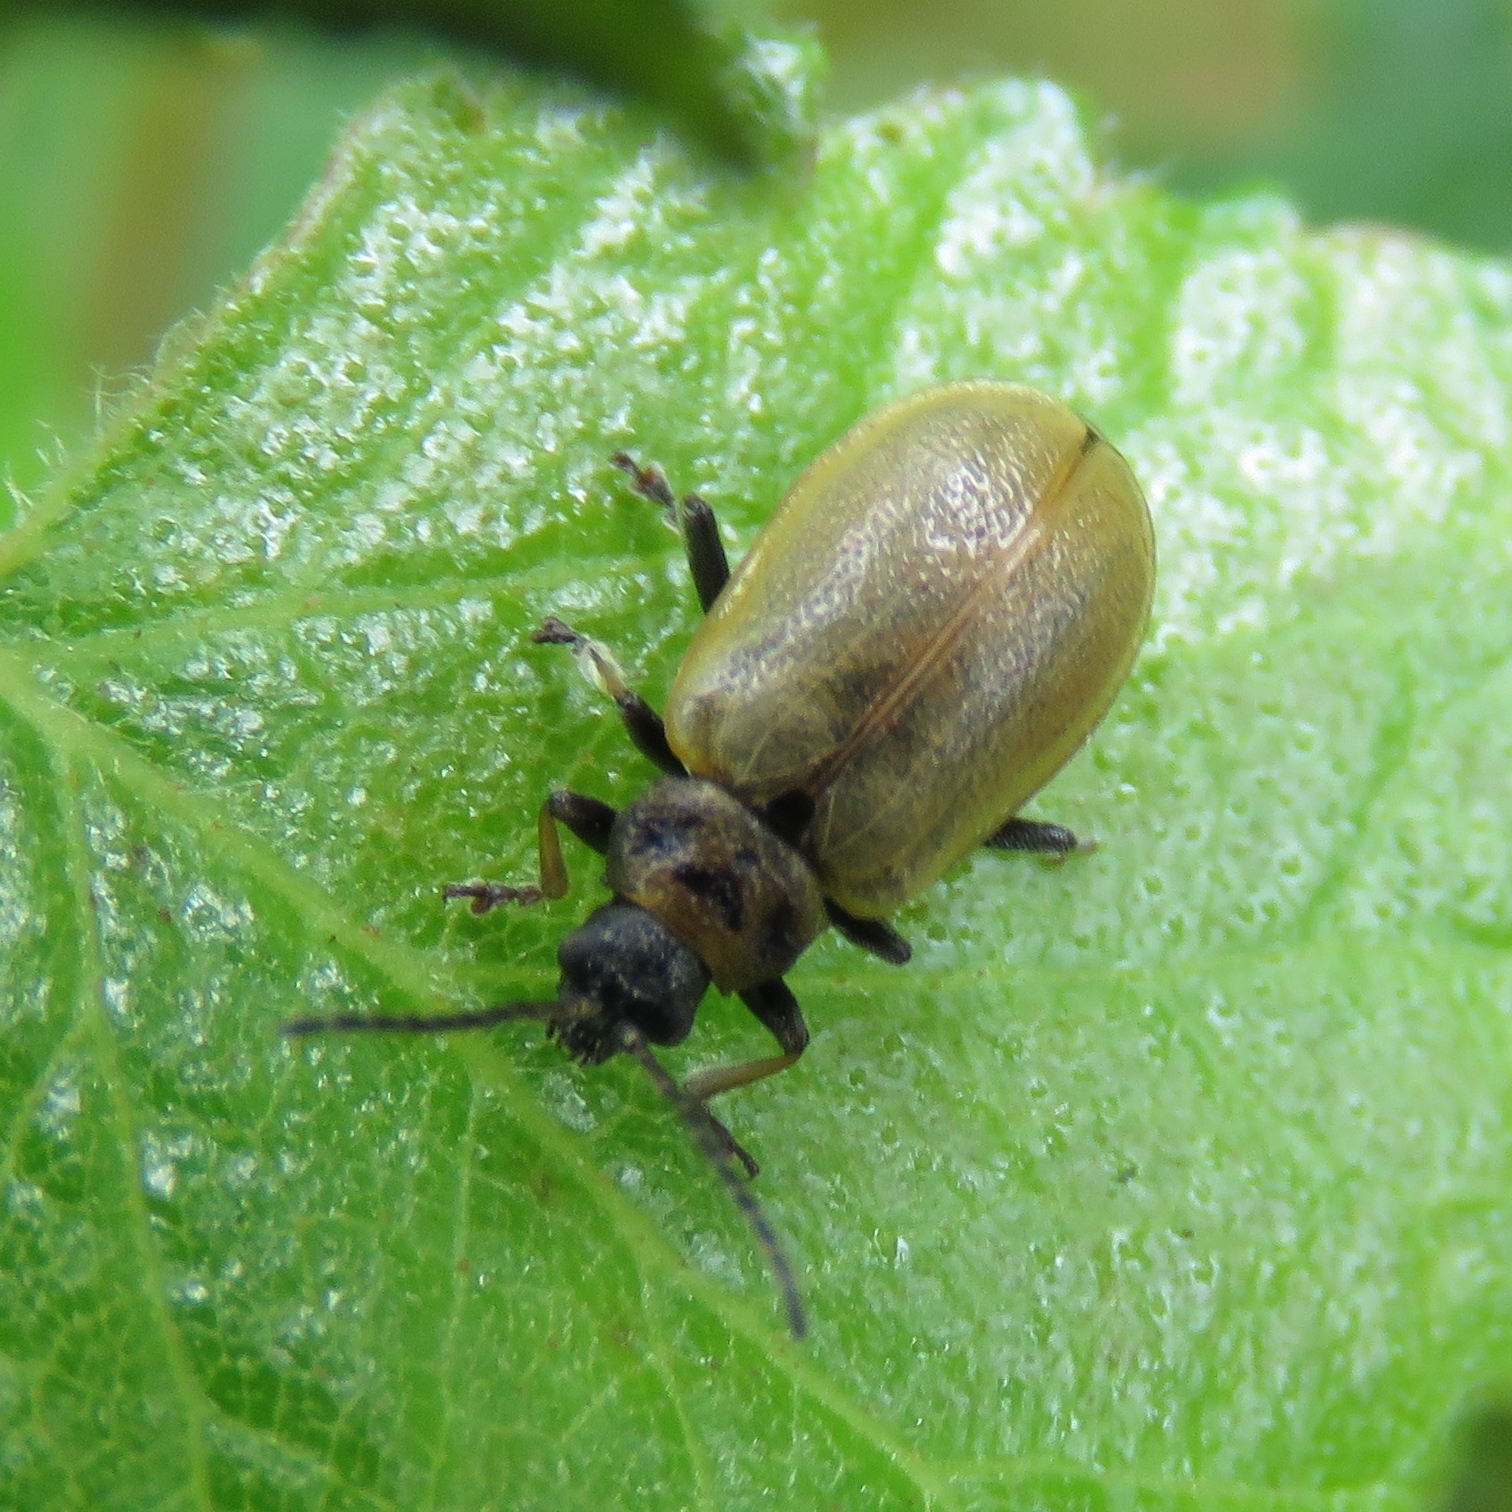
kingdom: Animalia
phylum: Arthropoda
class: Insecta
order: Coleoptera
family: Chrysomelidae
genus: Lochmaea
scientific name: Lochmaea caprea
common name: Willow leaf beetle
